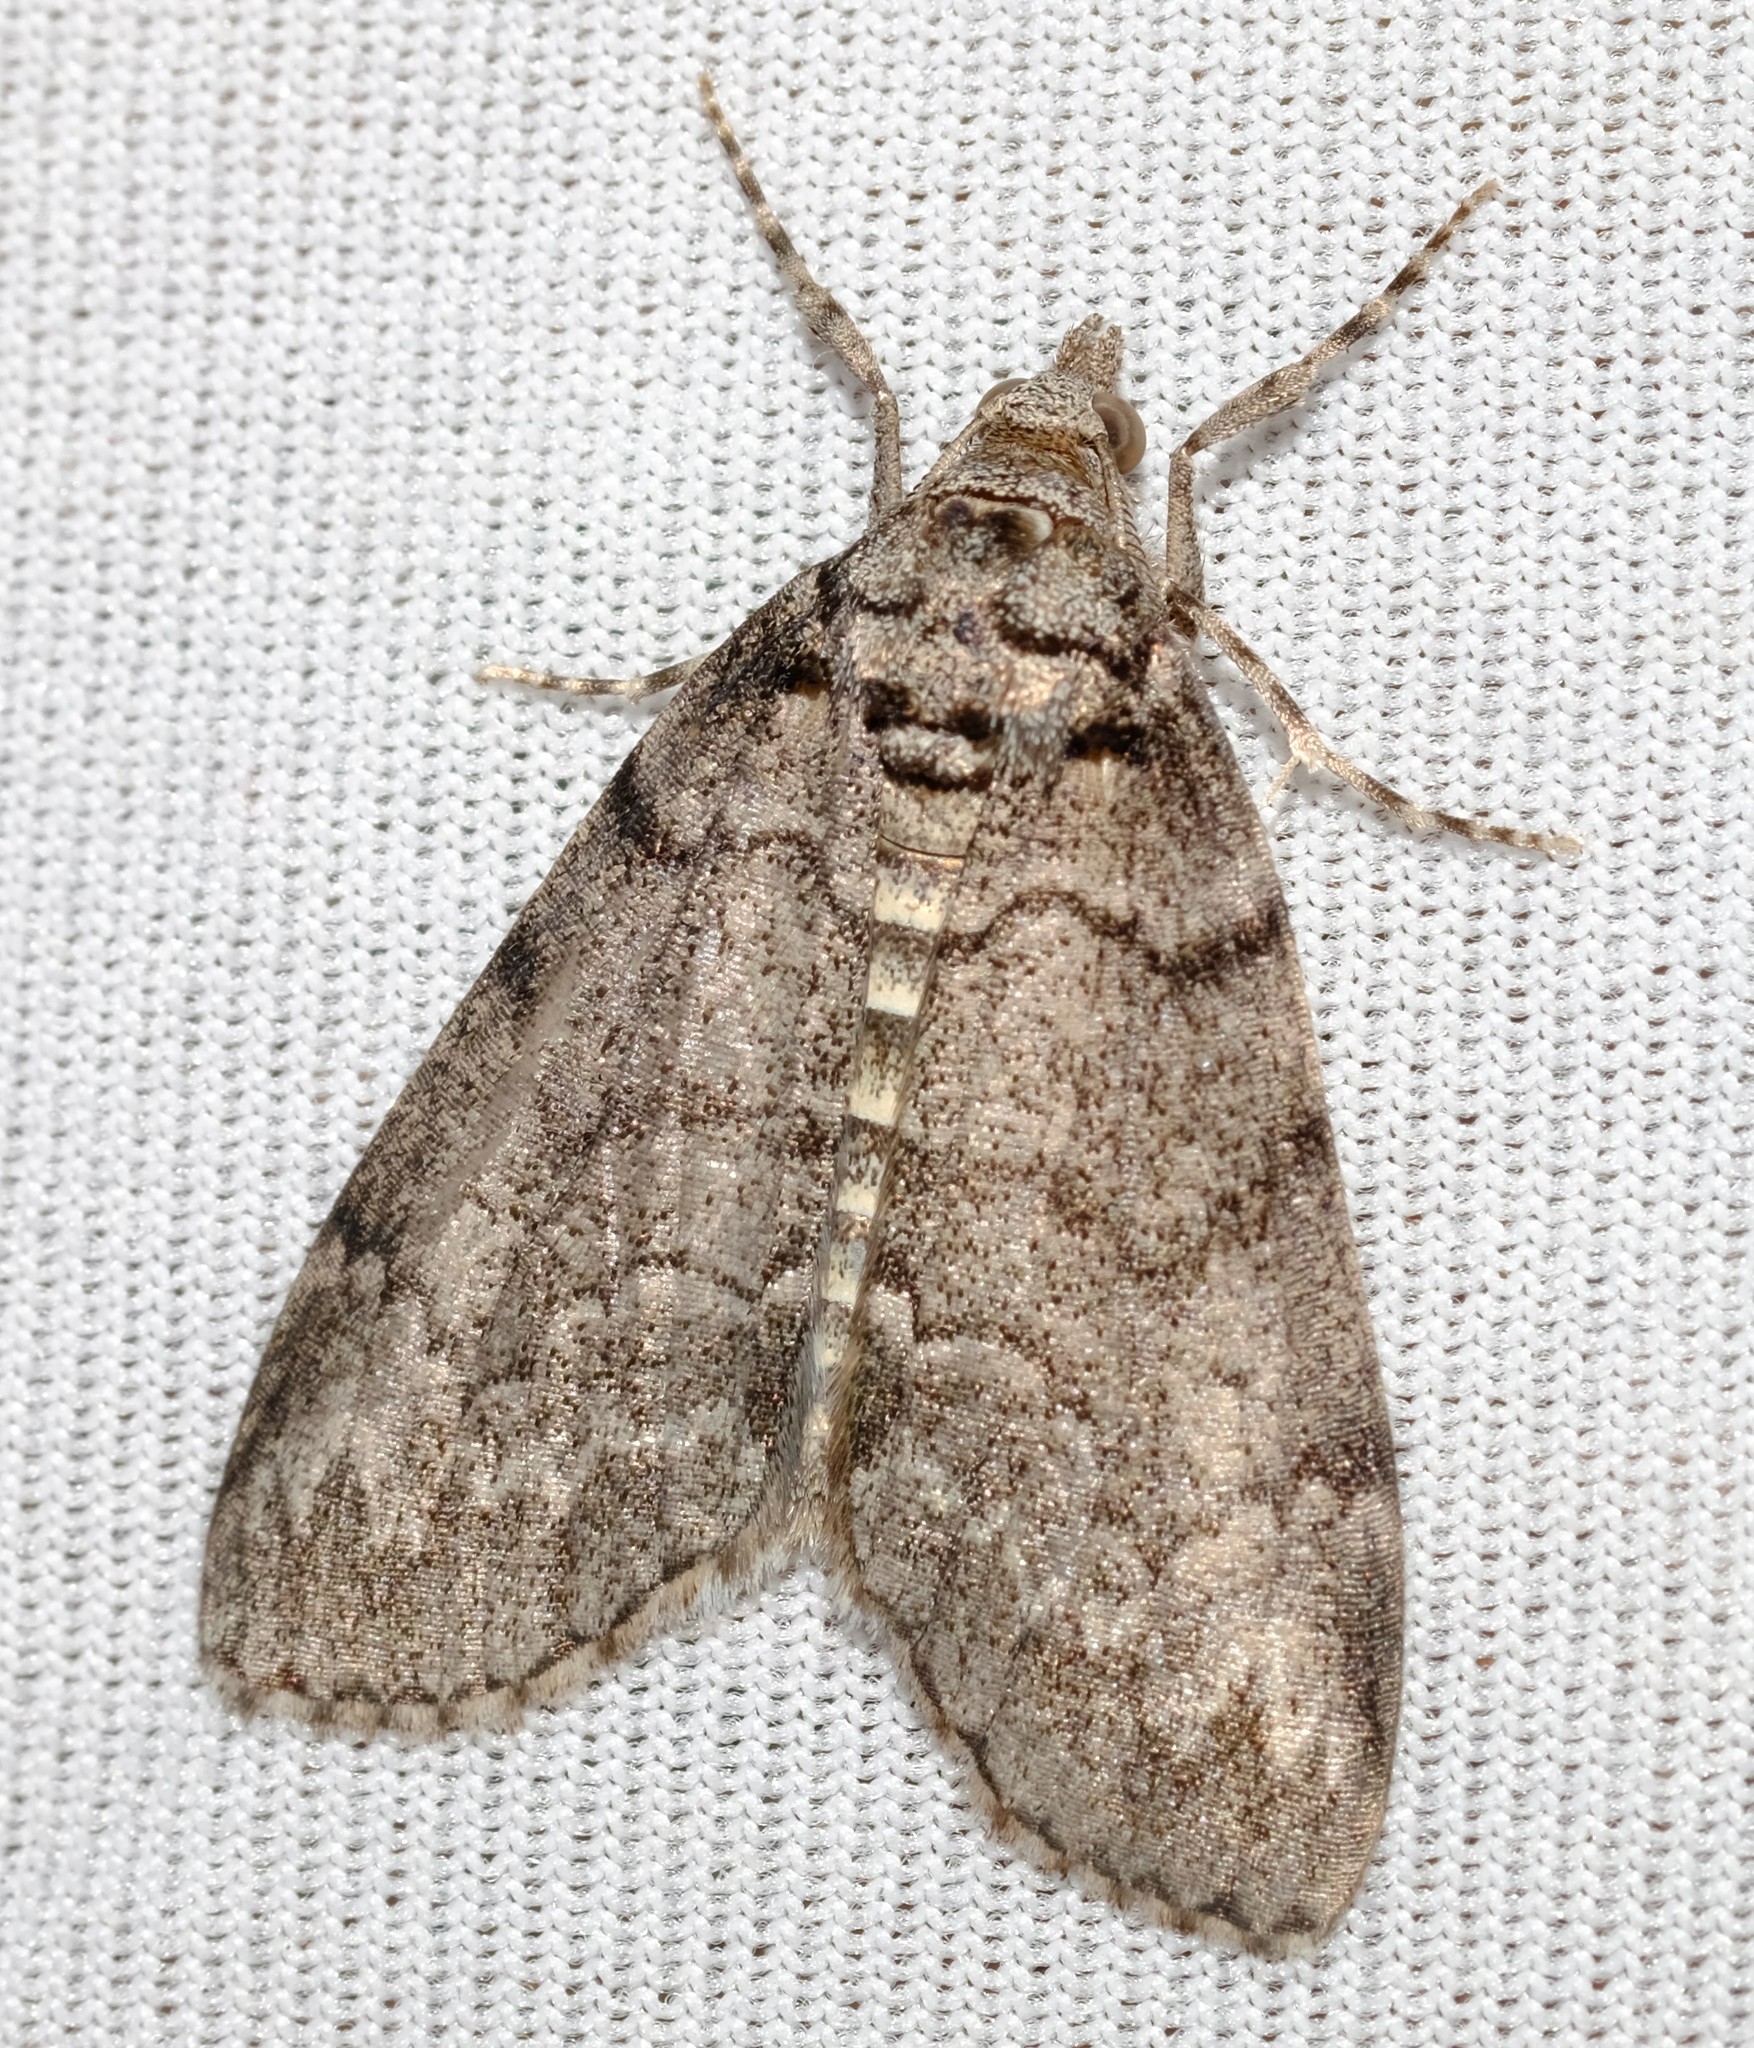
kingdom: Animalia
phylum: Arthropoda
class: Insecta
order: Lepidoptera
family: Geometridae
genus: Smyriodes
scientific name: Smyriodes trigramma
